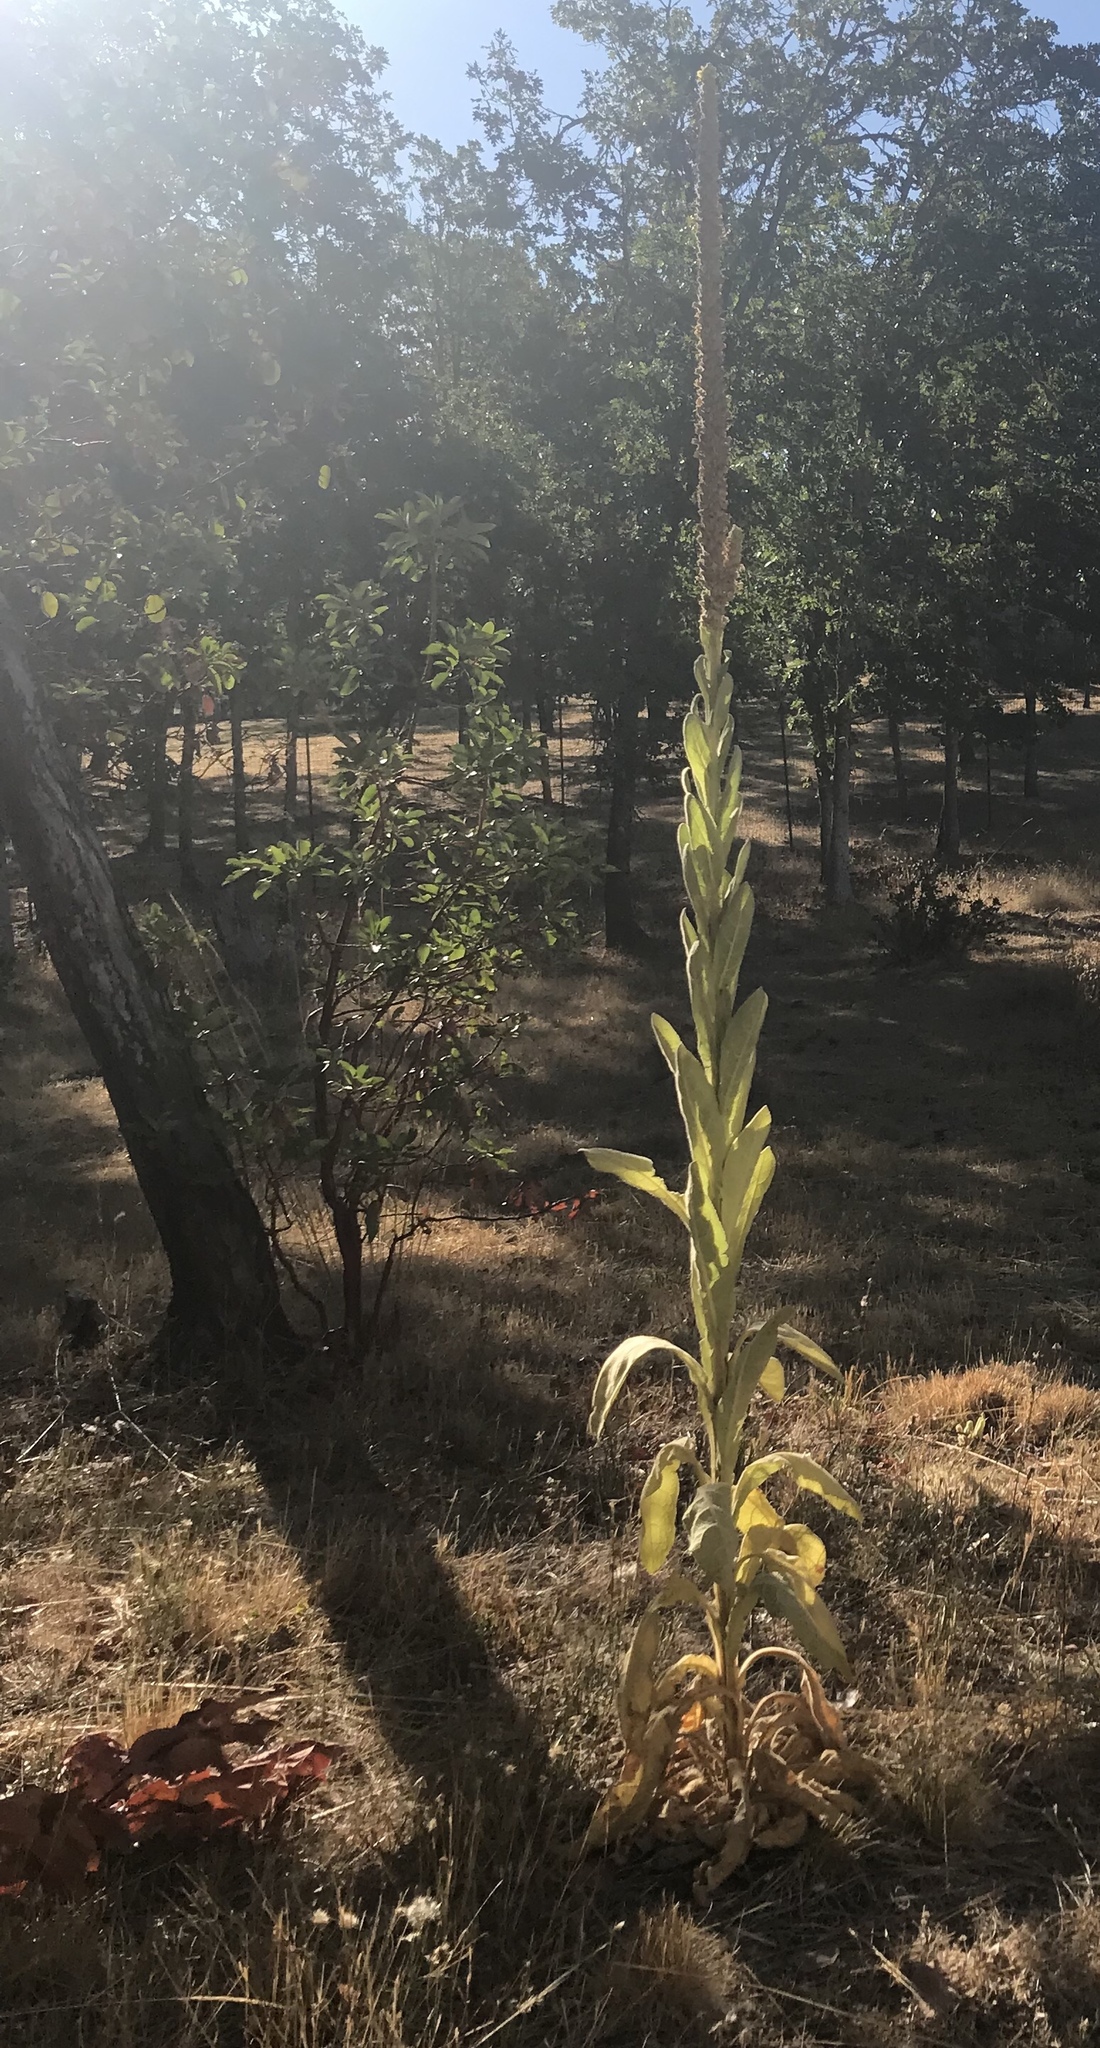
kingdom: Plantae
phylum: Tracheophyta
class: Magnoliopsida
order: Lamiales
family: Scrophulariaceae
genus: Verbascum
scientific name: Verbascum thapsus
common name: Common mullein
